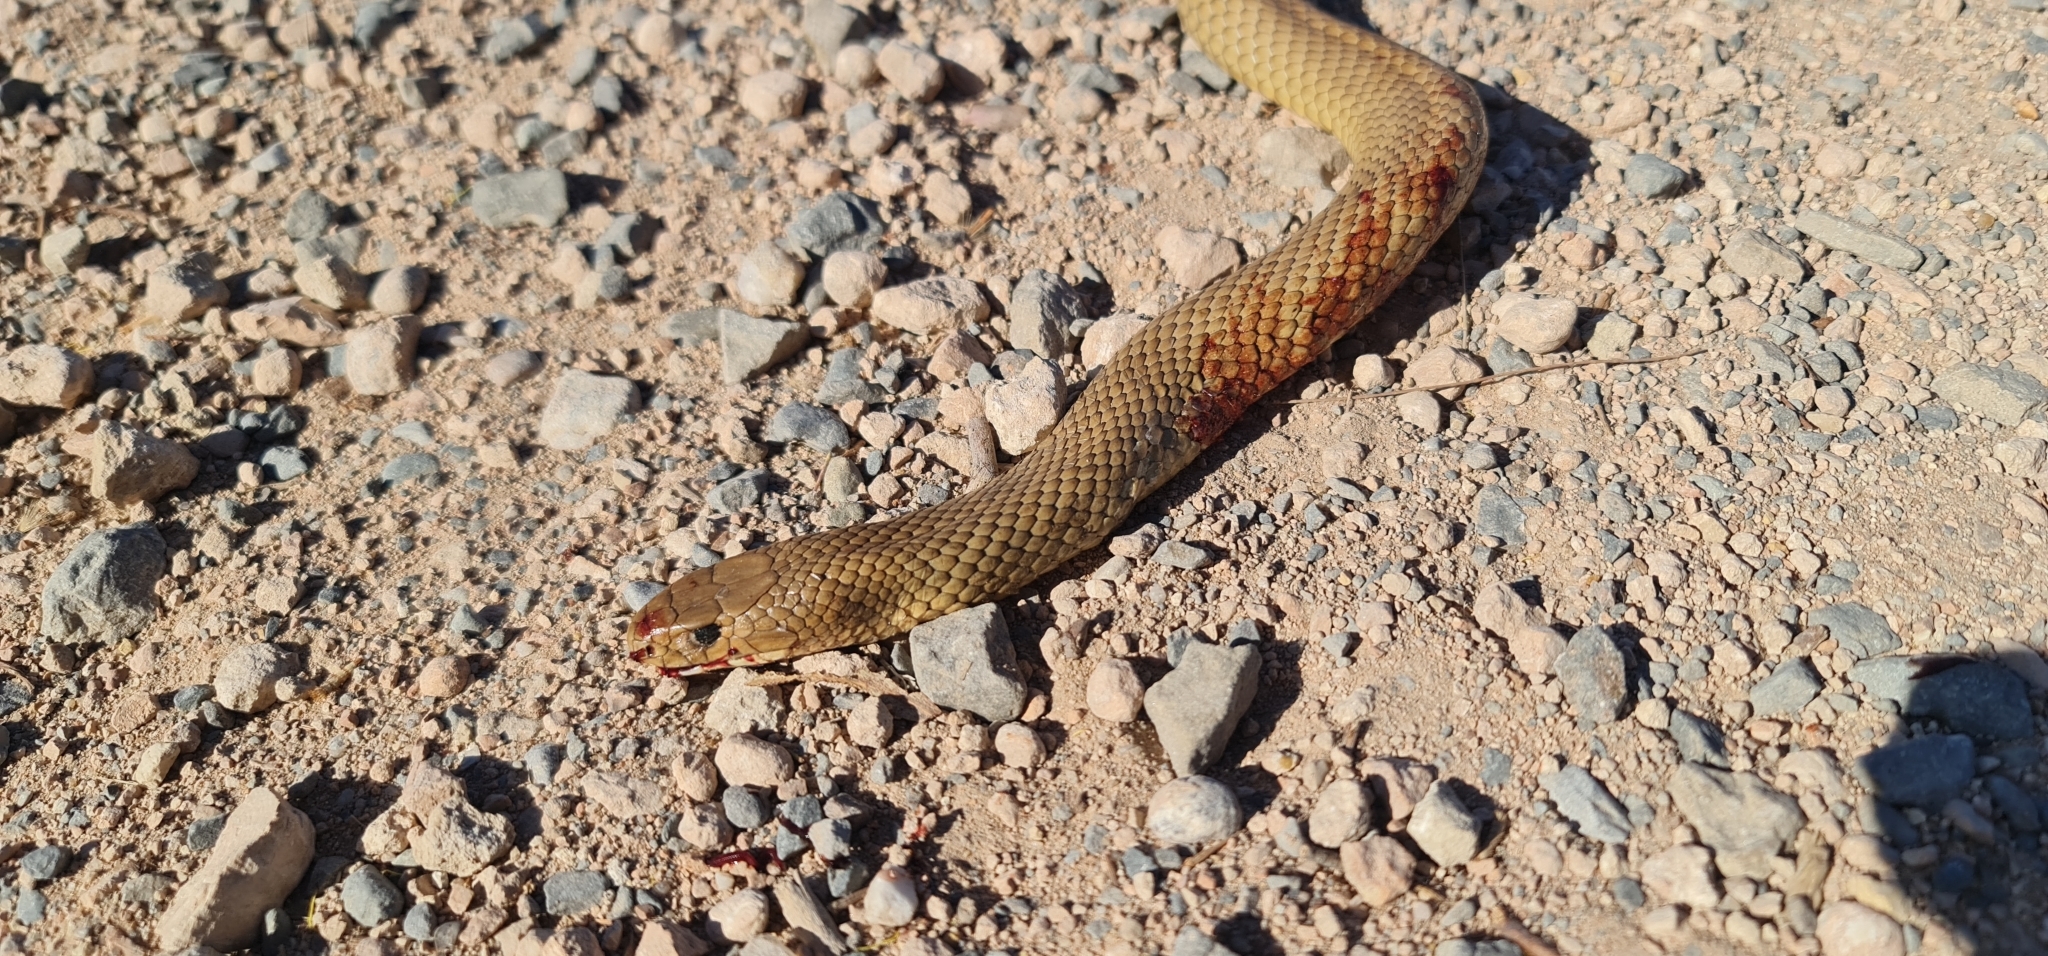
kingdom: Animalia
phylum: Chordata
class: Squamata
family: Elapidae
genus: Pseudonaja
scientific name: Pseudonaja textilis
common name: Eastern brown snake
